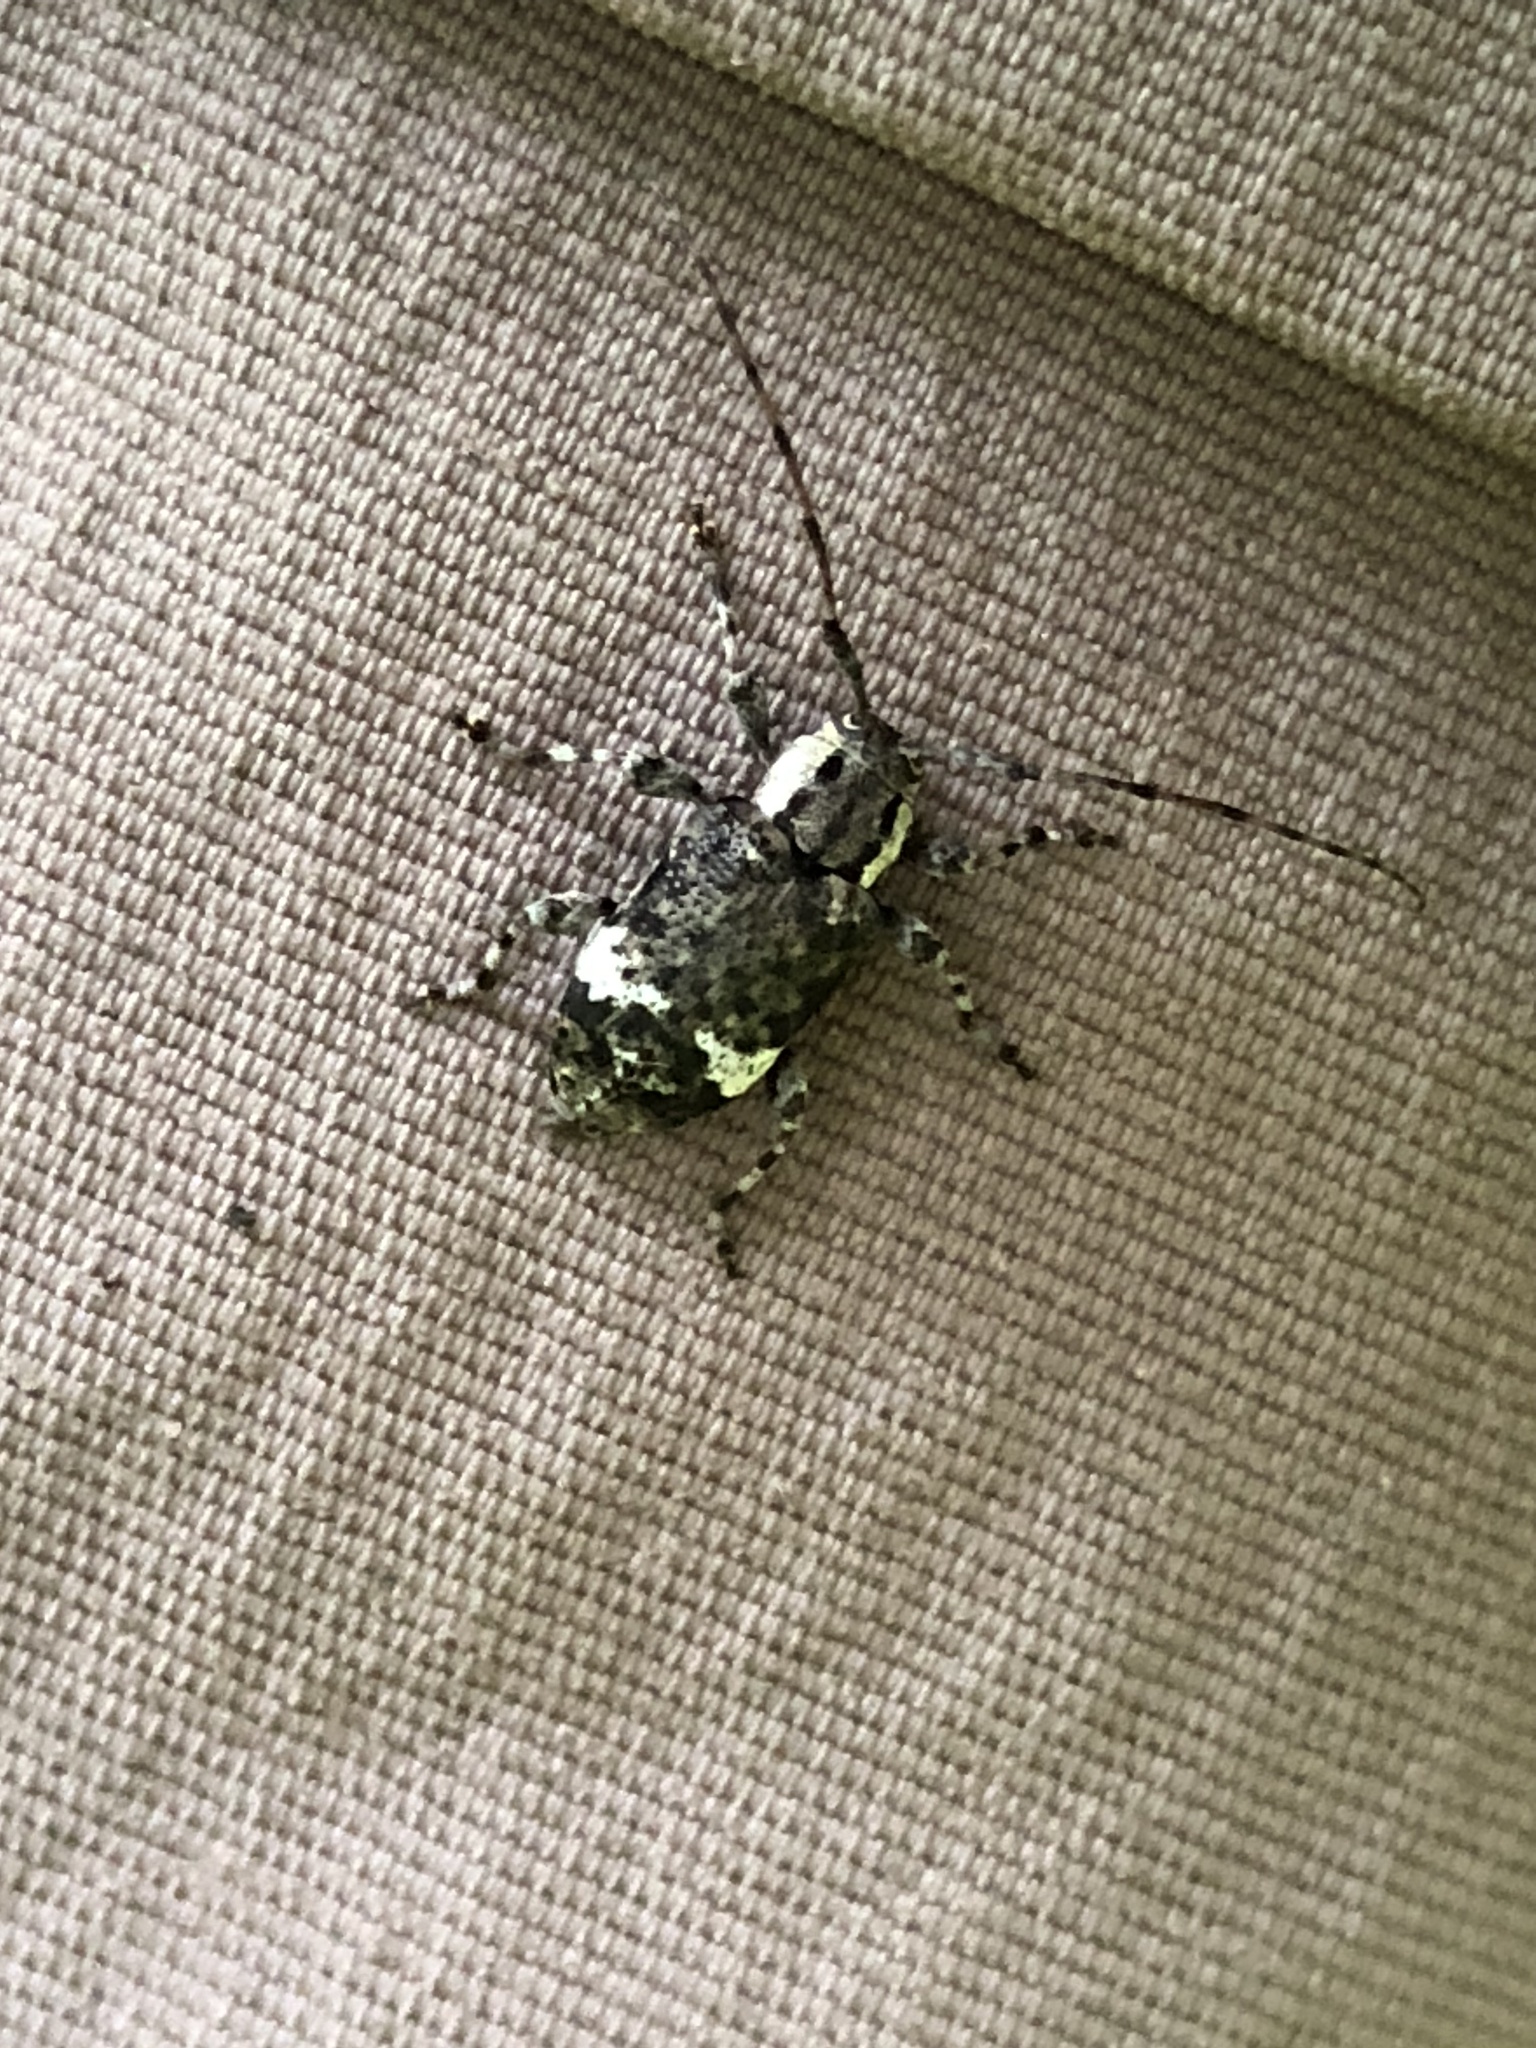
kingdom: Animalia
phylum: Arthropoda
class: Insecta
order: Coleoptera
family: Cerambycidae
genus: Astylopsis
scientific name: Astylopsis macula
